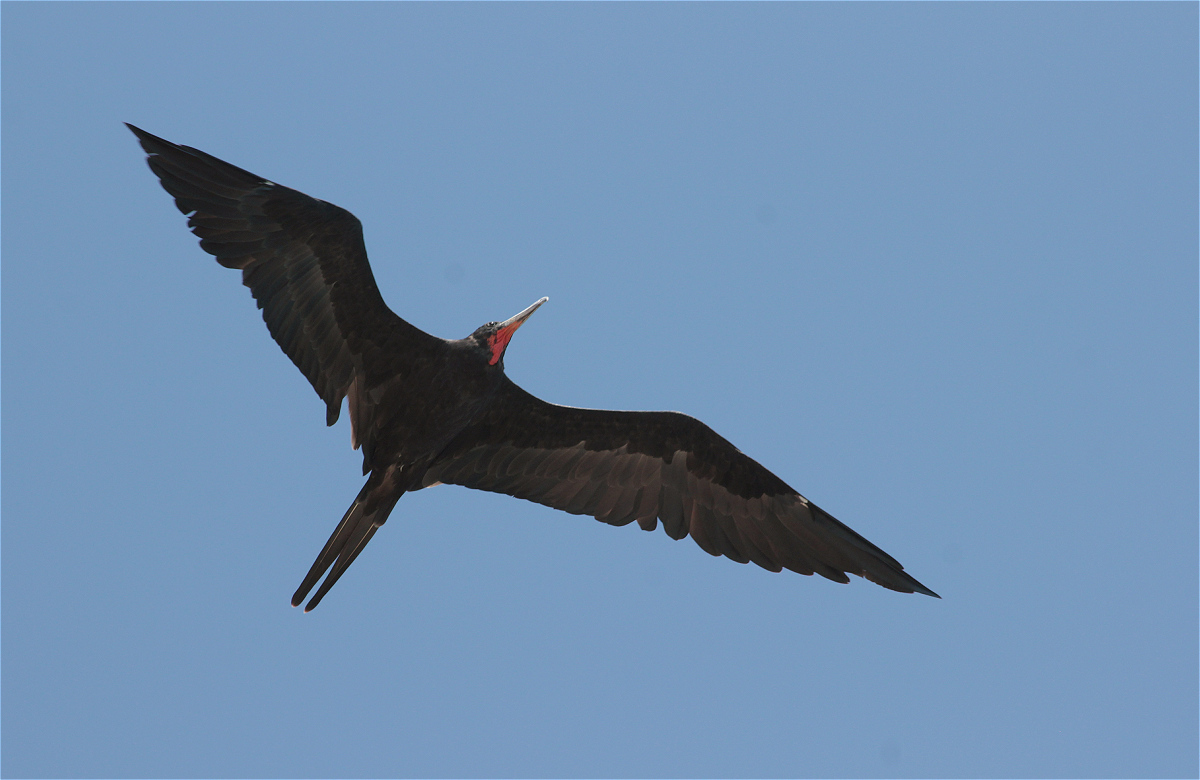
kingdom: Animalia
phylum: Chordata
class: Aves
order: Suliformes
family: Fregatidae
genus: Fregata
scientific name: Fregata magnificens
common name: Magnificent frigatebird
